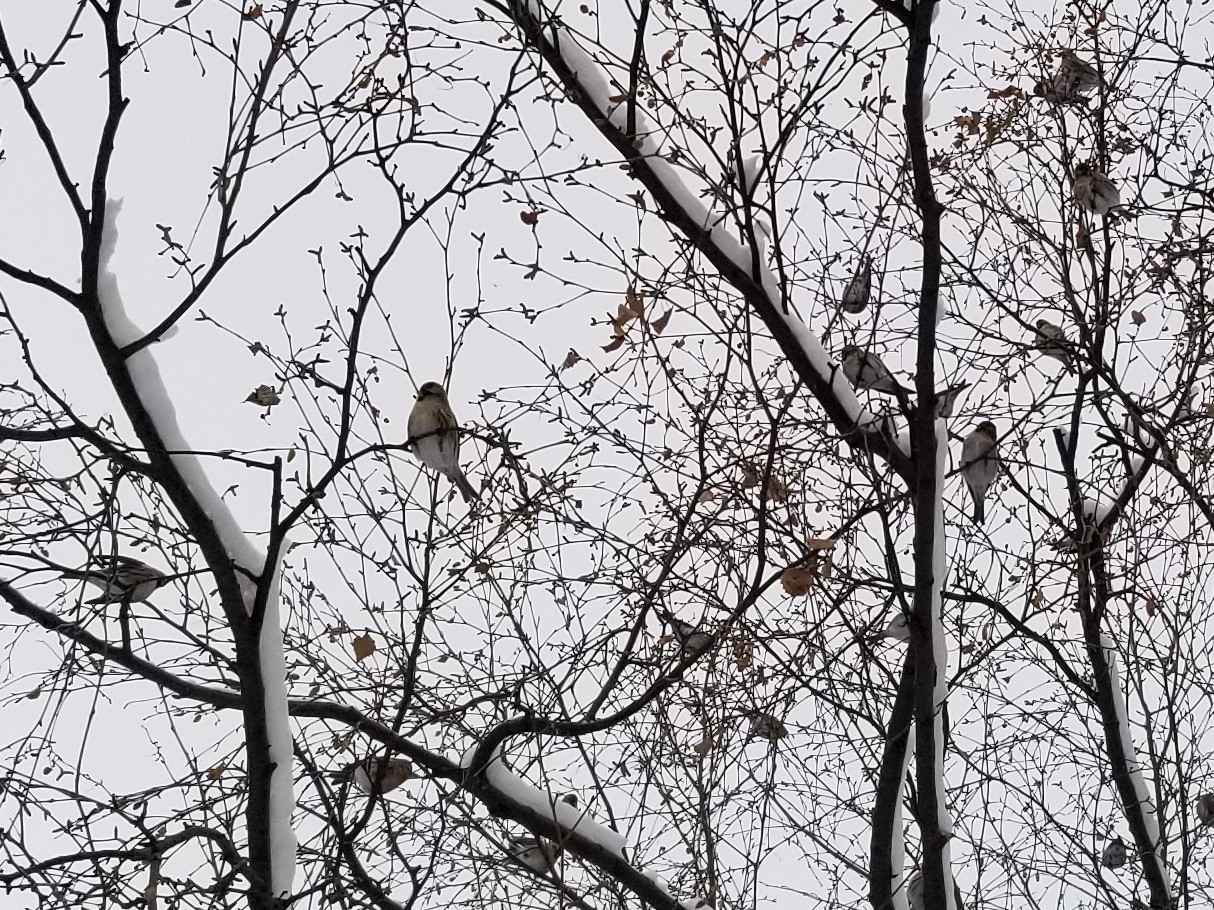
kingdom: Animalia
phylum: Chordata
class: Aves
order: Passeriformes
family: Fringillidae
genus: Acanthis
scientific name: Acanthis flammea
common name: Common redpoll
